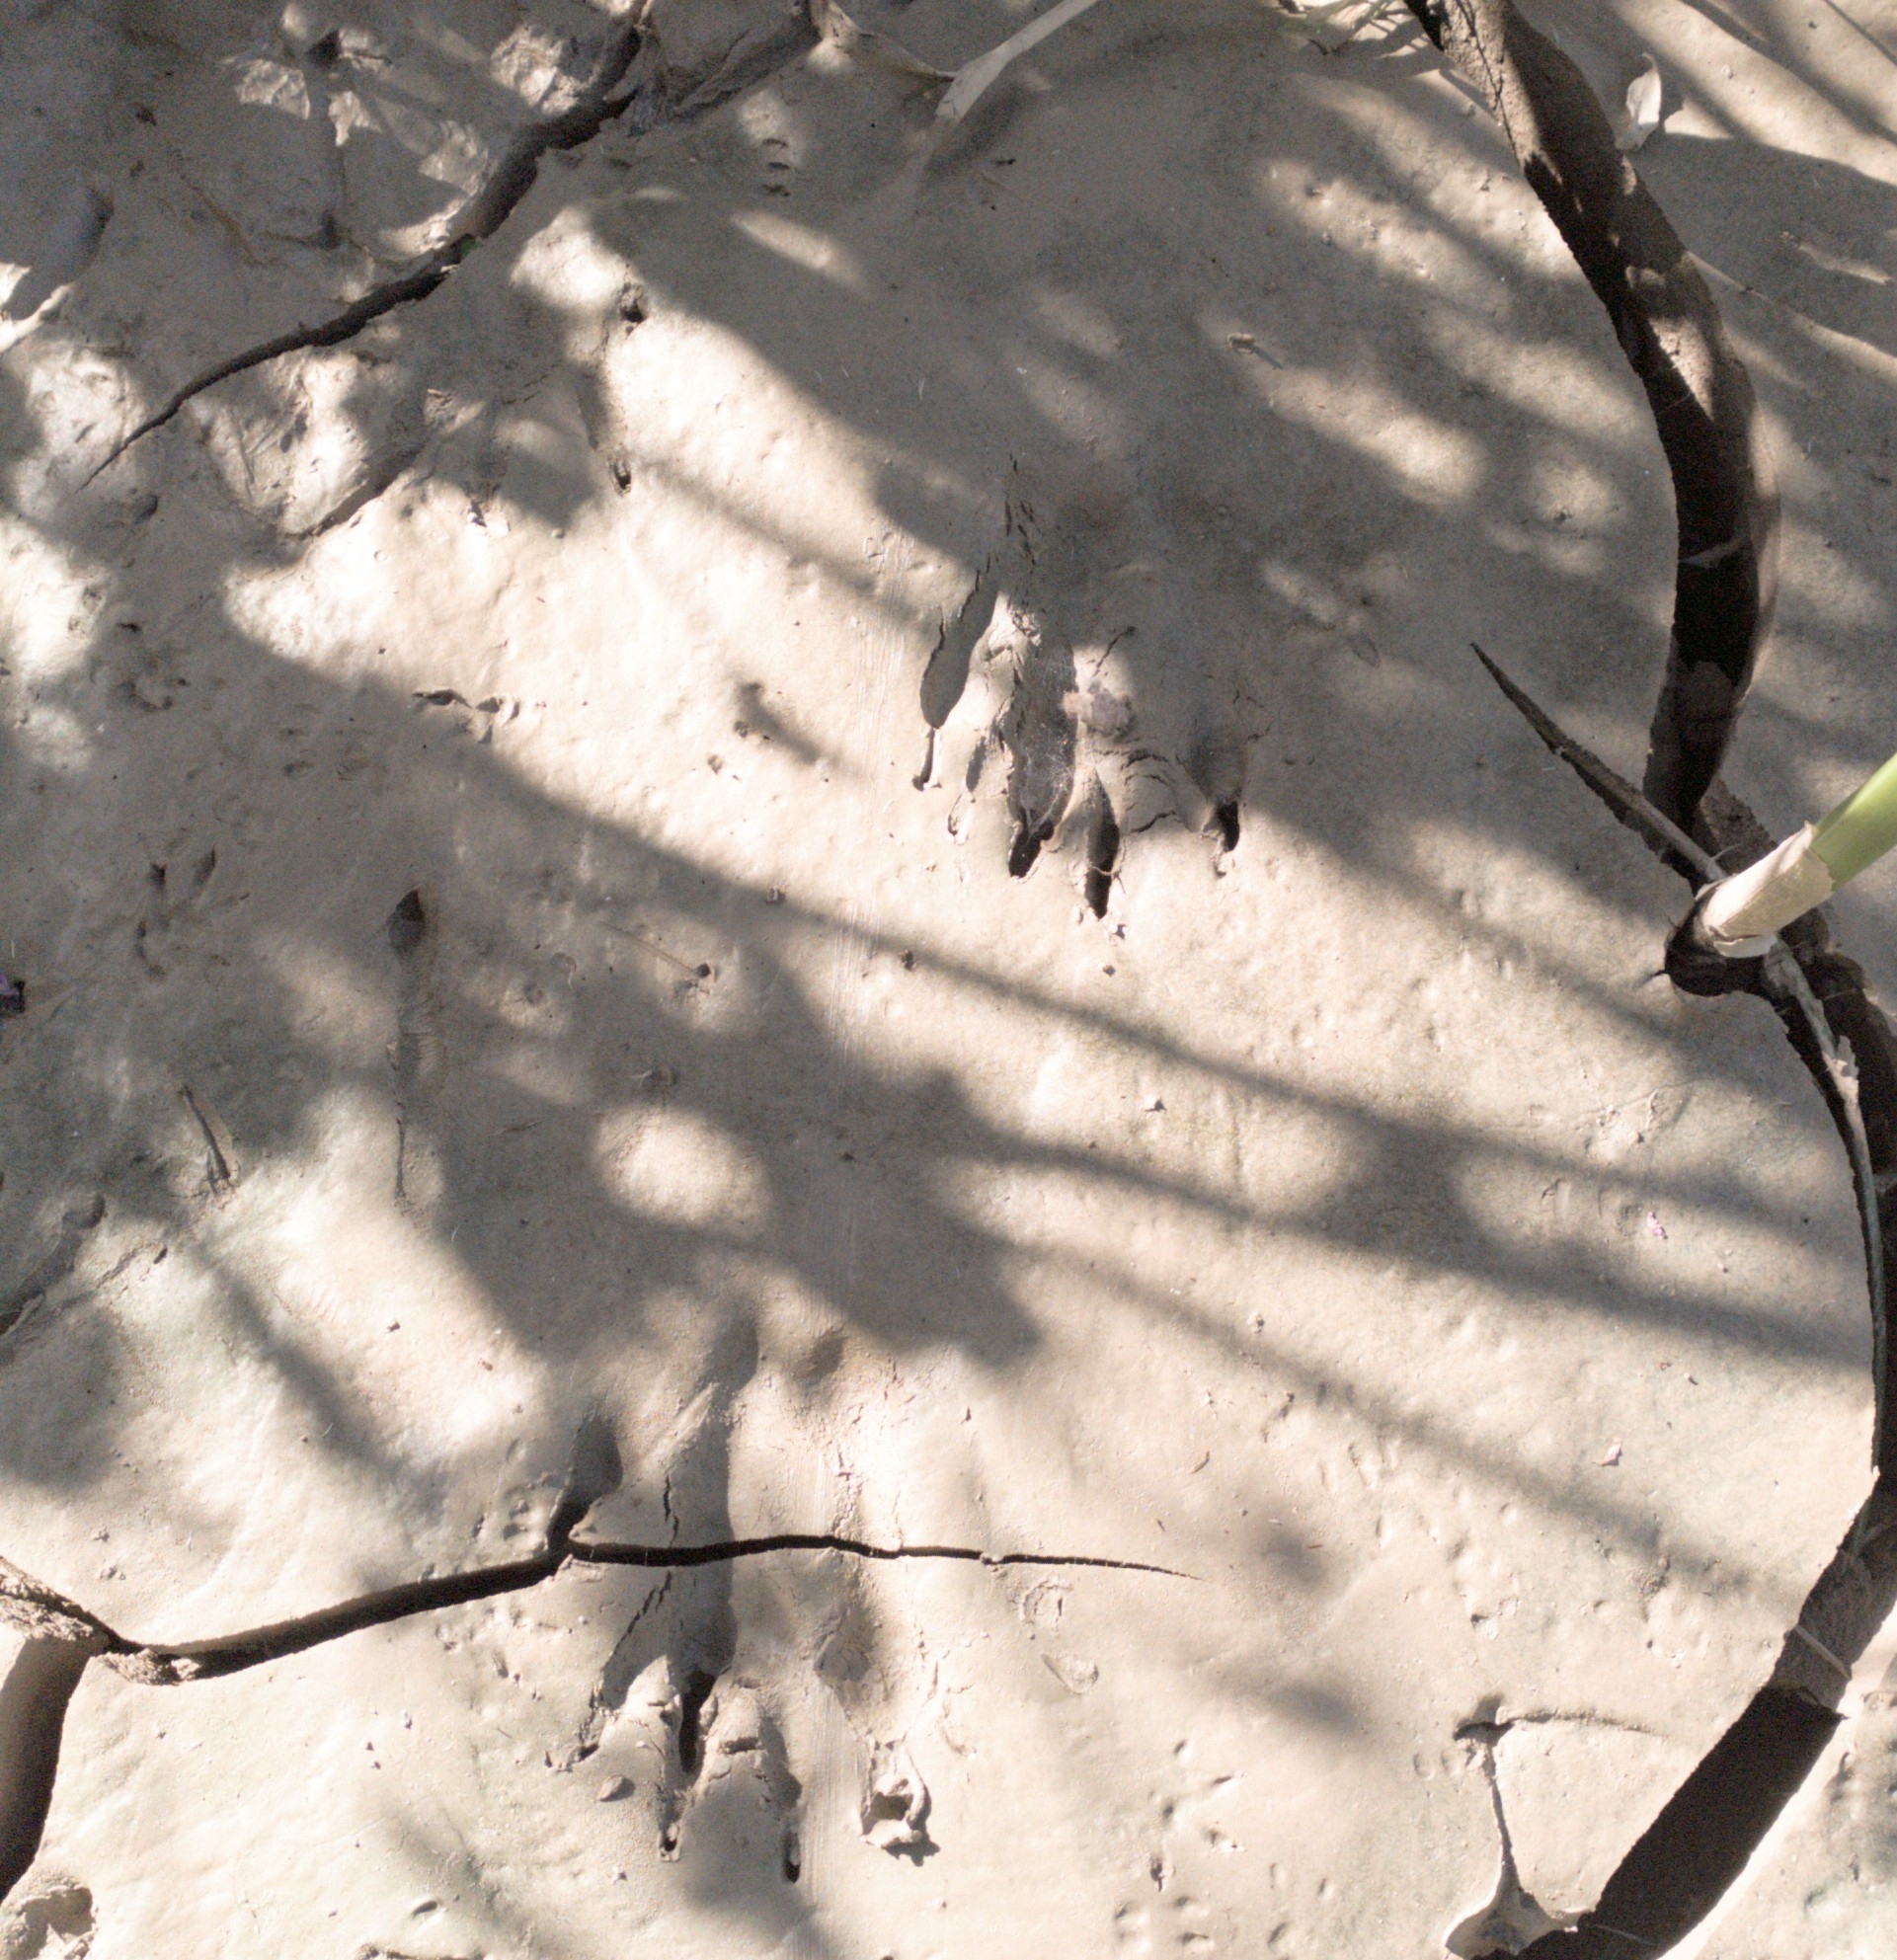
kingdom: Animalia
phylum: Chordata
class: Mammalia
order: Rodentia
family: Myocastoridae
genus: Myocastor
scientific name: Myocastor coypus
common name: Coypu
